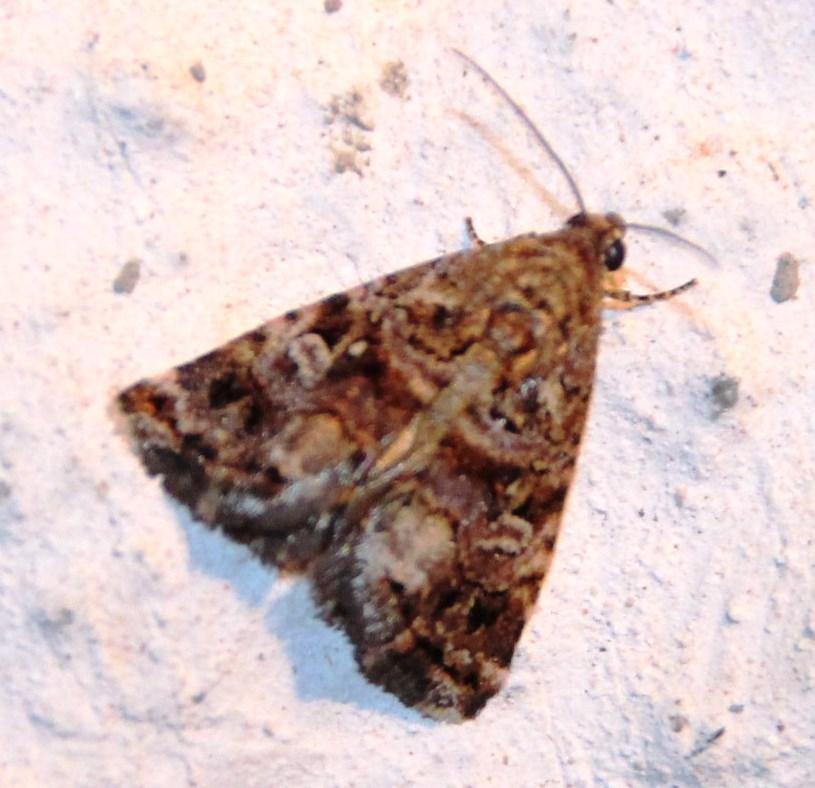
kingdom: Animalia
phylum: Arthropoda
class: Insecta
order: Lepidoptera
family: Noctuidae
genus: Acontiola
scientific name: Acontiola heliastis
